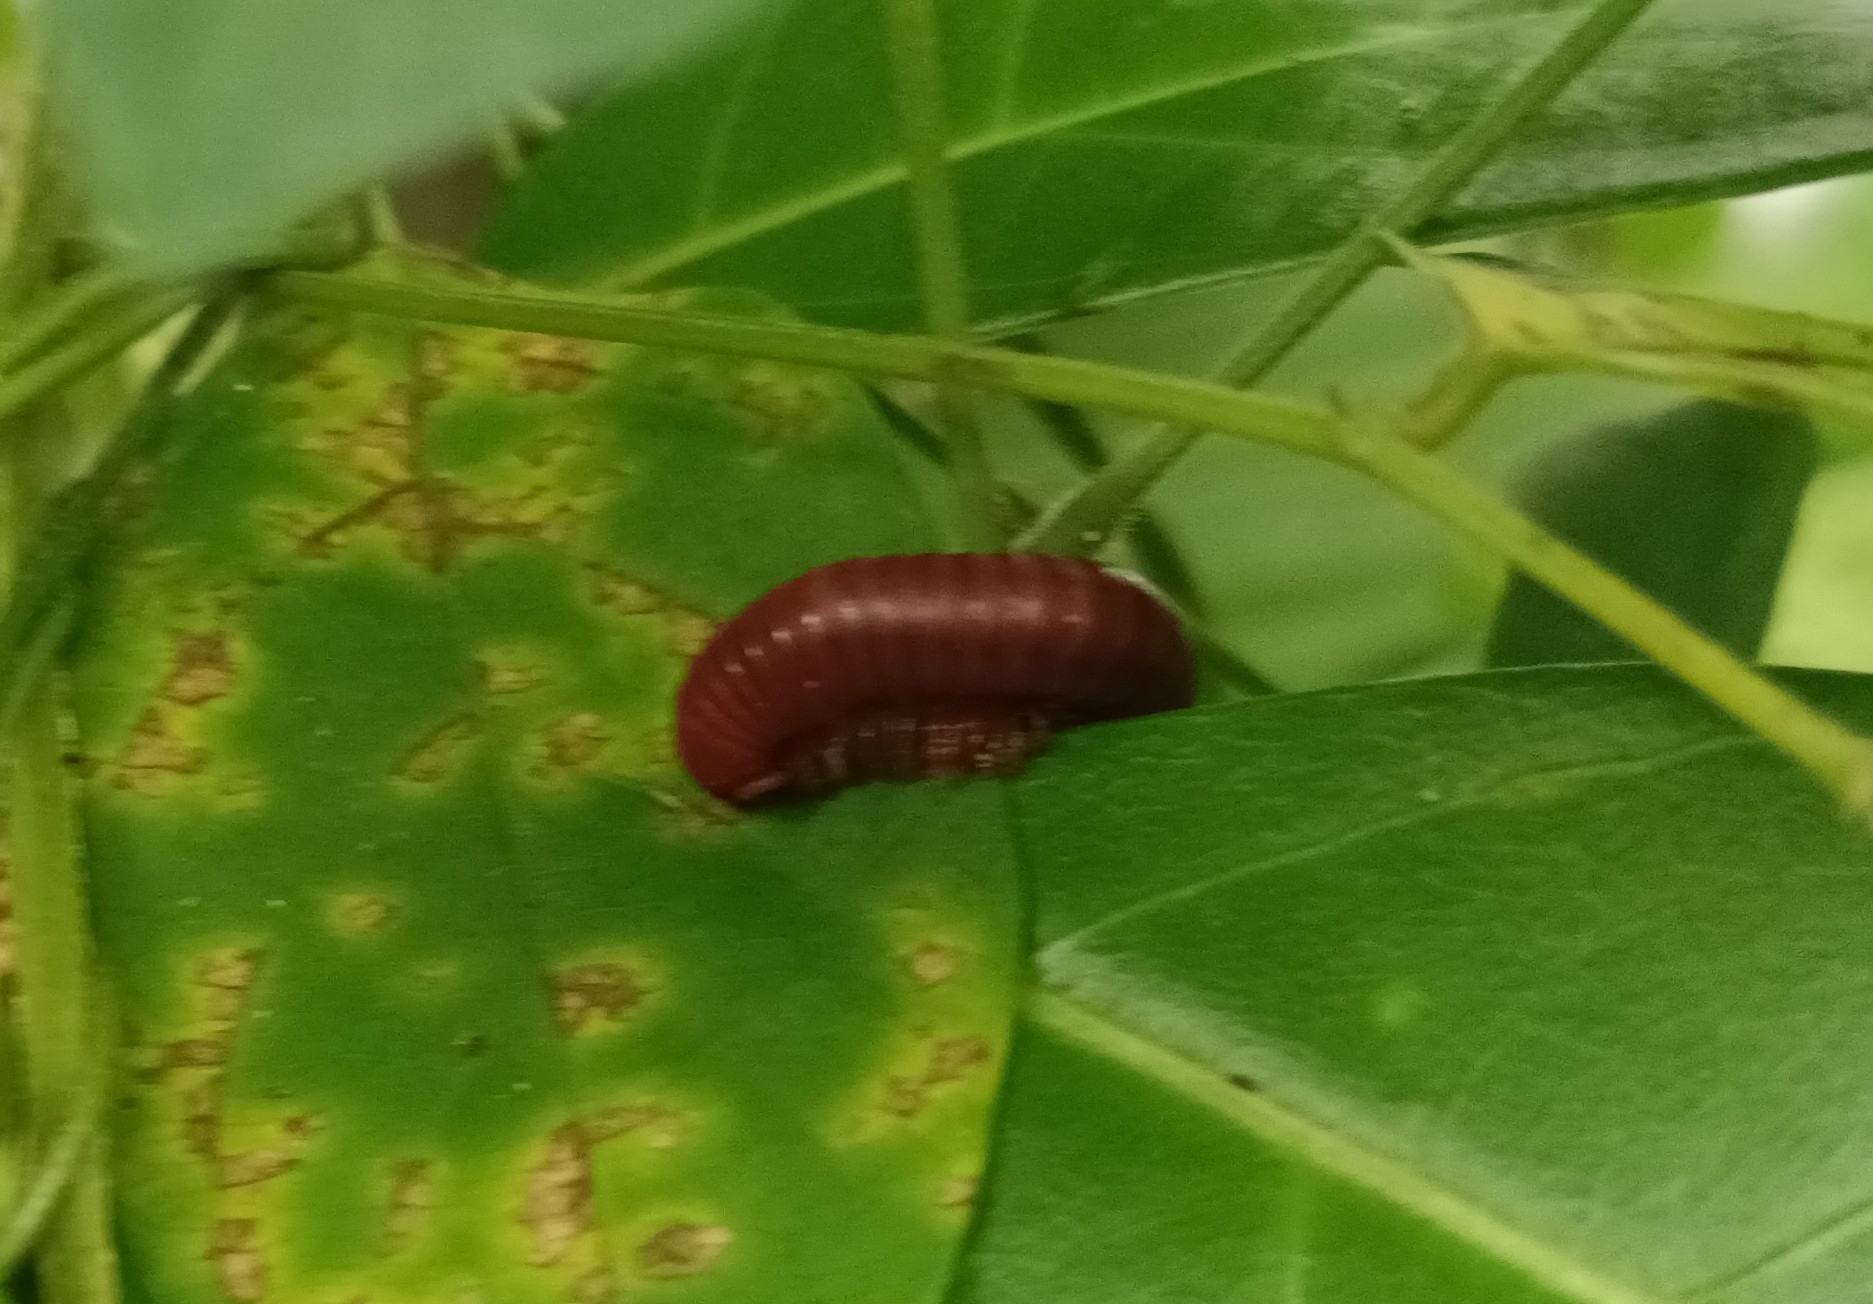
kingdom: Animalia
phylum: Arthropoda
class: Diplopoda
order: Spirobolida
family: Pachybolidae
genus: Trigoniulus
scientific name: Trigoniulus corallinus
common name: Millipede
